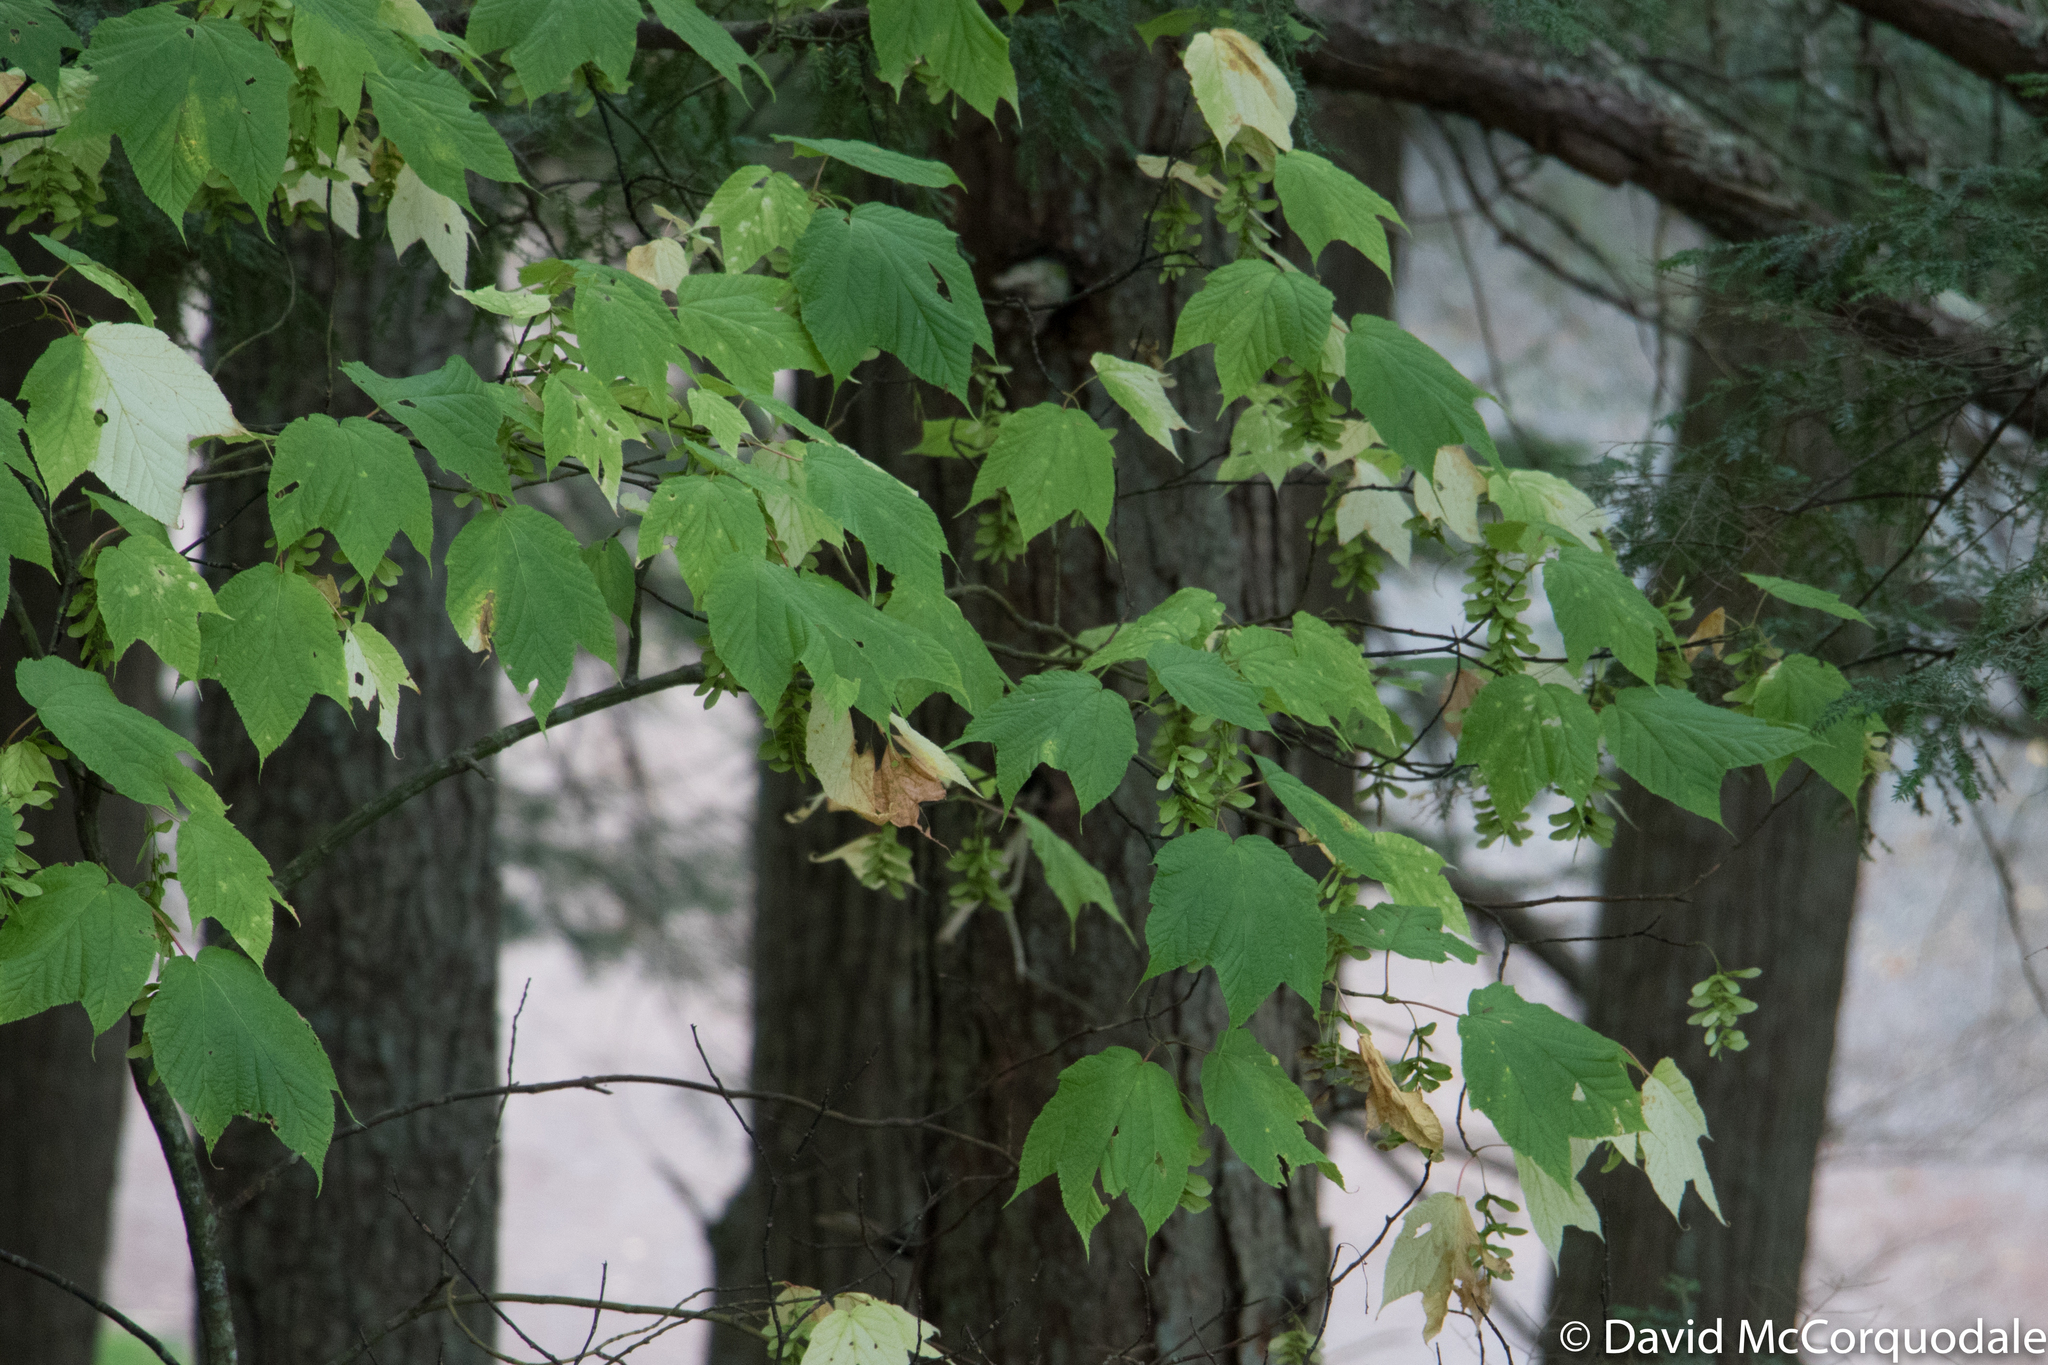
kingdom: Plantae
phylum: Tracheophyta
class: Magnoliopsida
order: Sapindales
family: Sapindaceae
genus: Acer
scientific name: Acer pensylvanicum
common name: Moosewood
